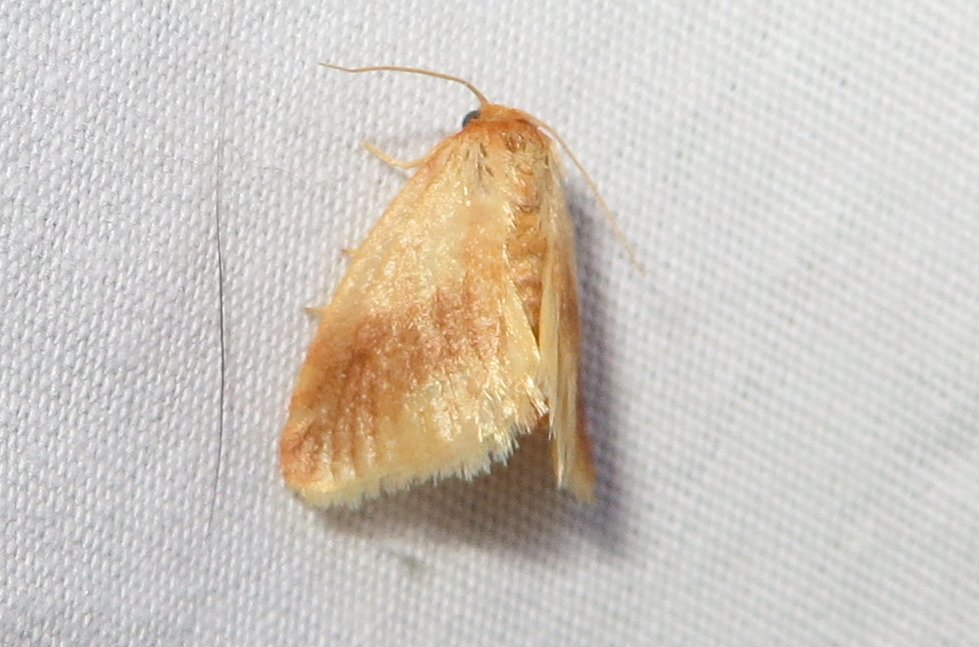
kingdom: Animalia
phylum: Arthropoda
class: Insecta
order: Lepidoptera
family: Limacodidae
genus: Tortricidia
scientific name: Tortricidia testacea
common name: Early button slug moth
